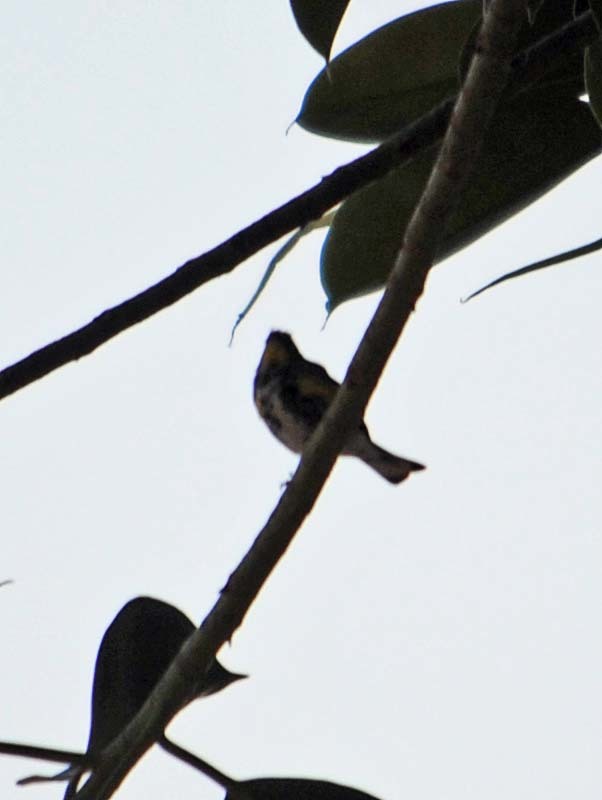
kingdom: Animalia
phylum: Chordata
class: Aves
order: Passeriformes
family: Parulidae
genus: Setophaga
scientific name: Setophaga auduboni
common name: Audubon's warbler
